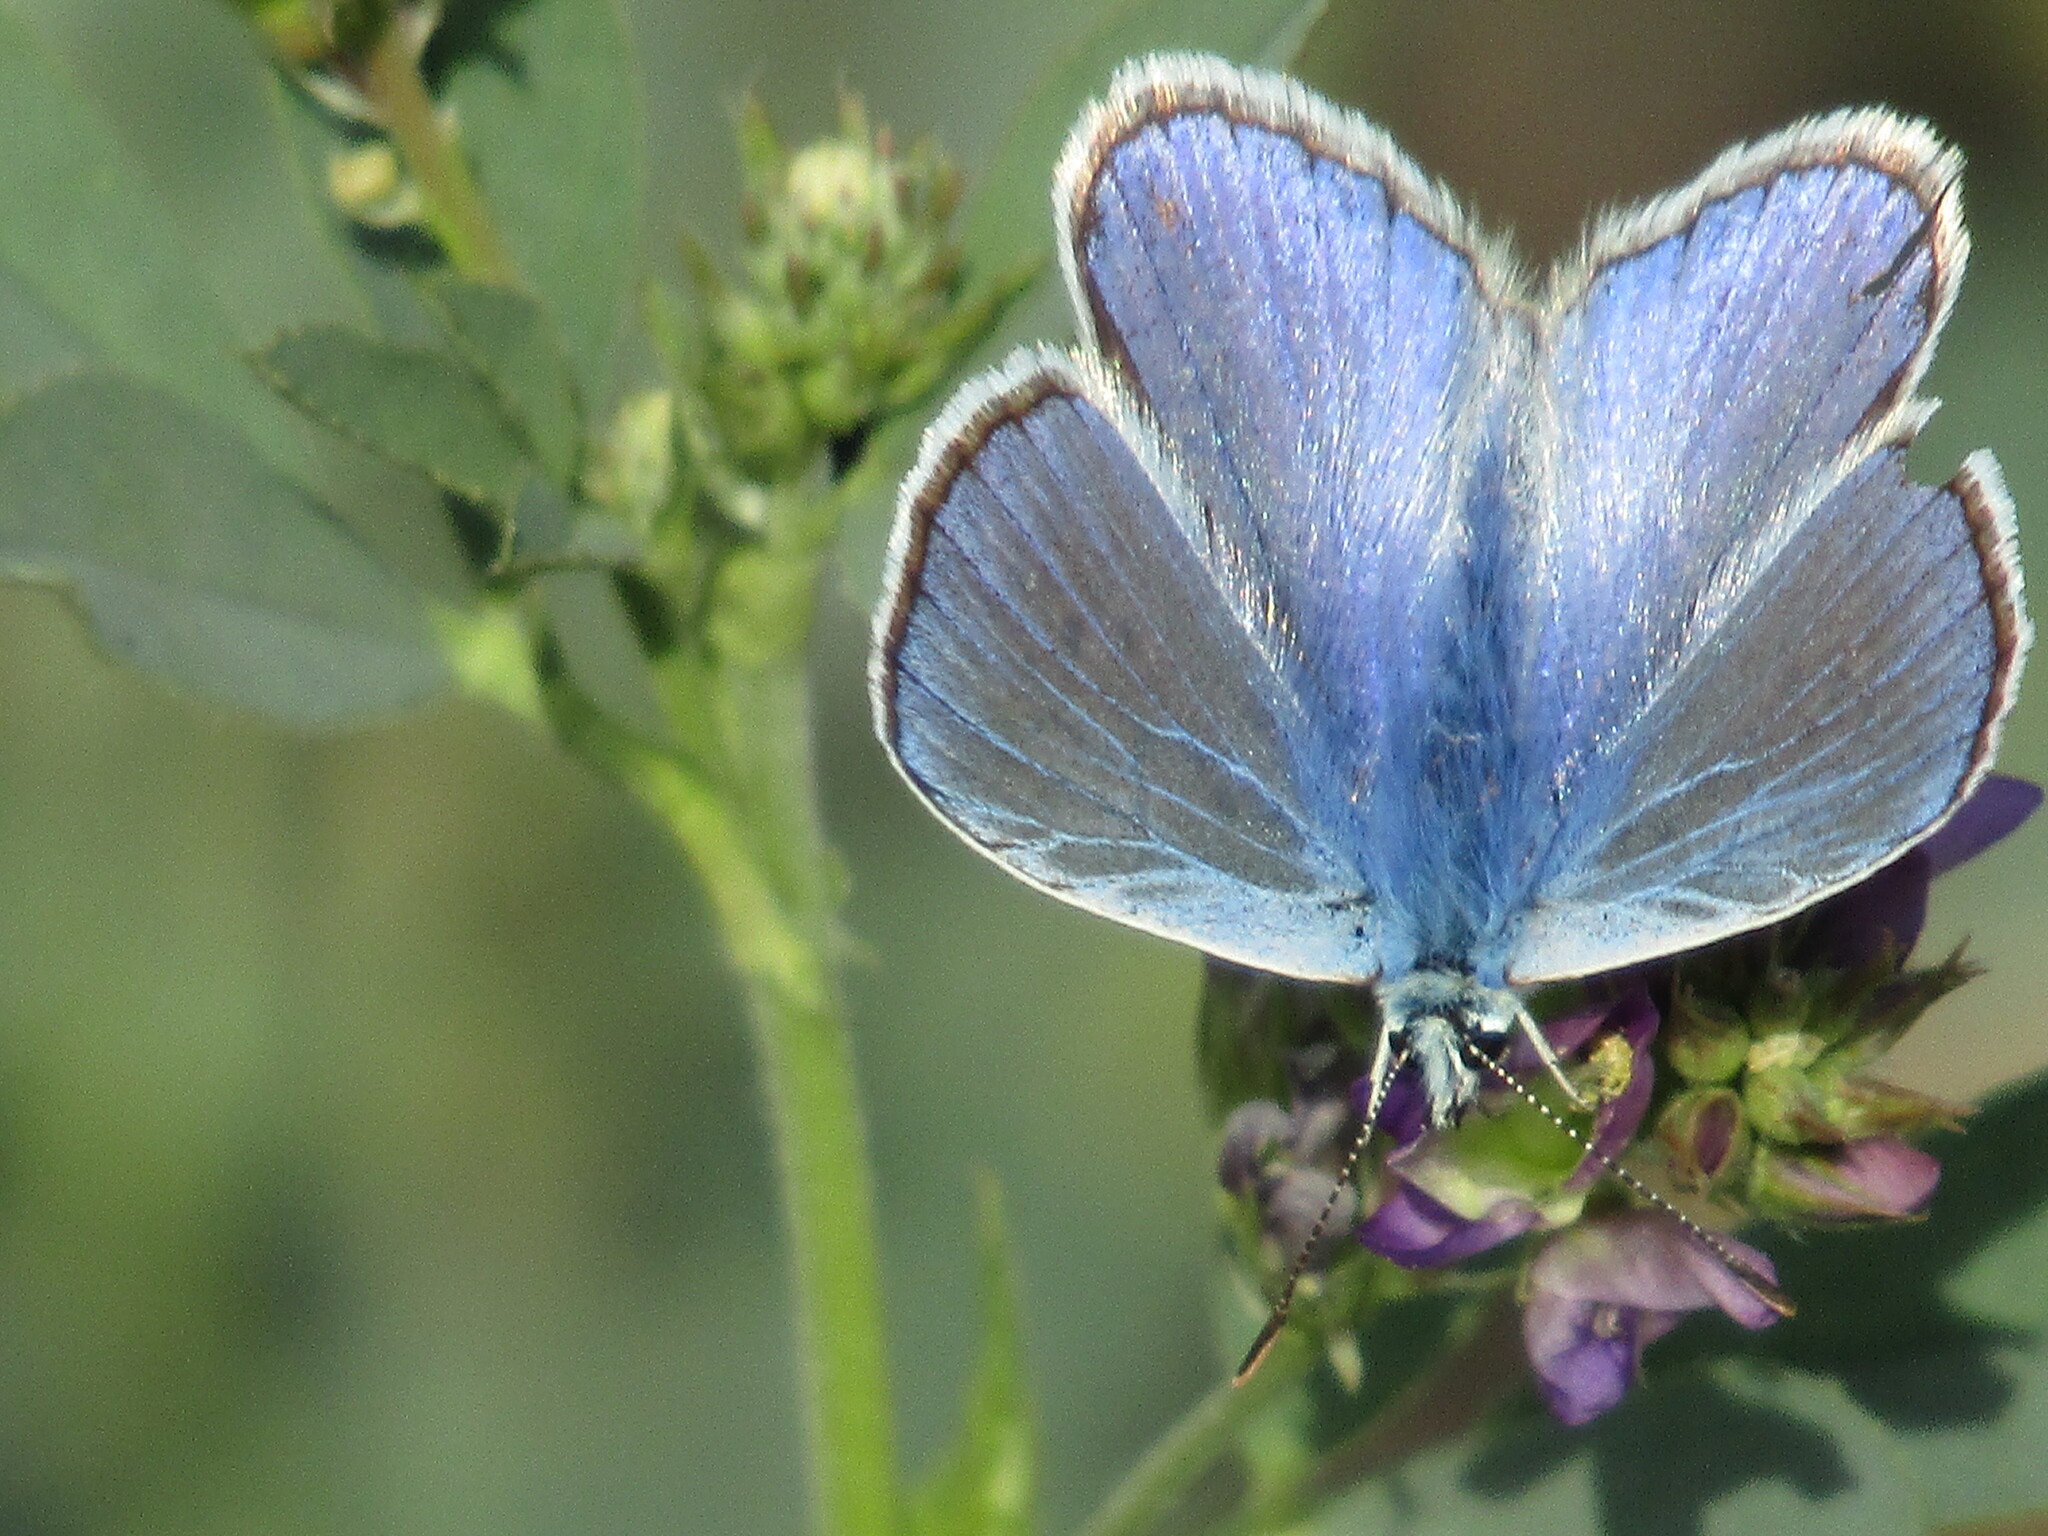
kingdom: Animalia
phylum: Arthropoda
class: Insecta
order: Lepidoptera
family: Lycaenidae
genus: Polyommatus
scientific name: Polyommatus icarus
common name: Common blue
